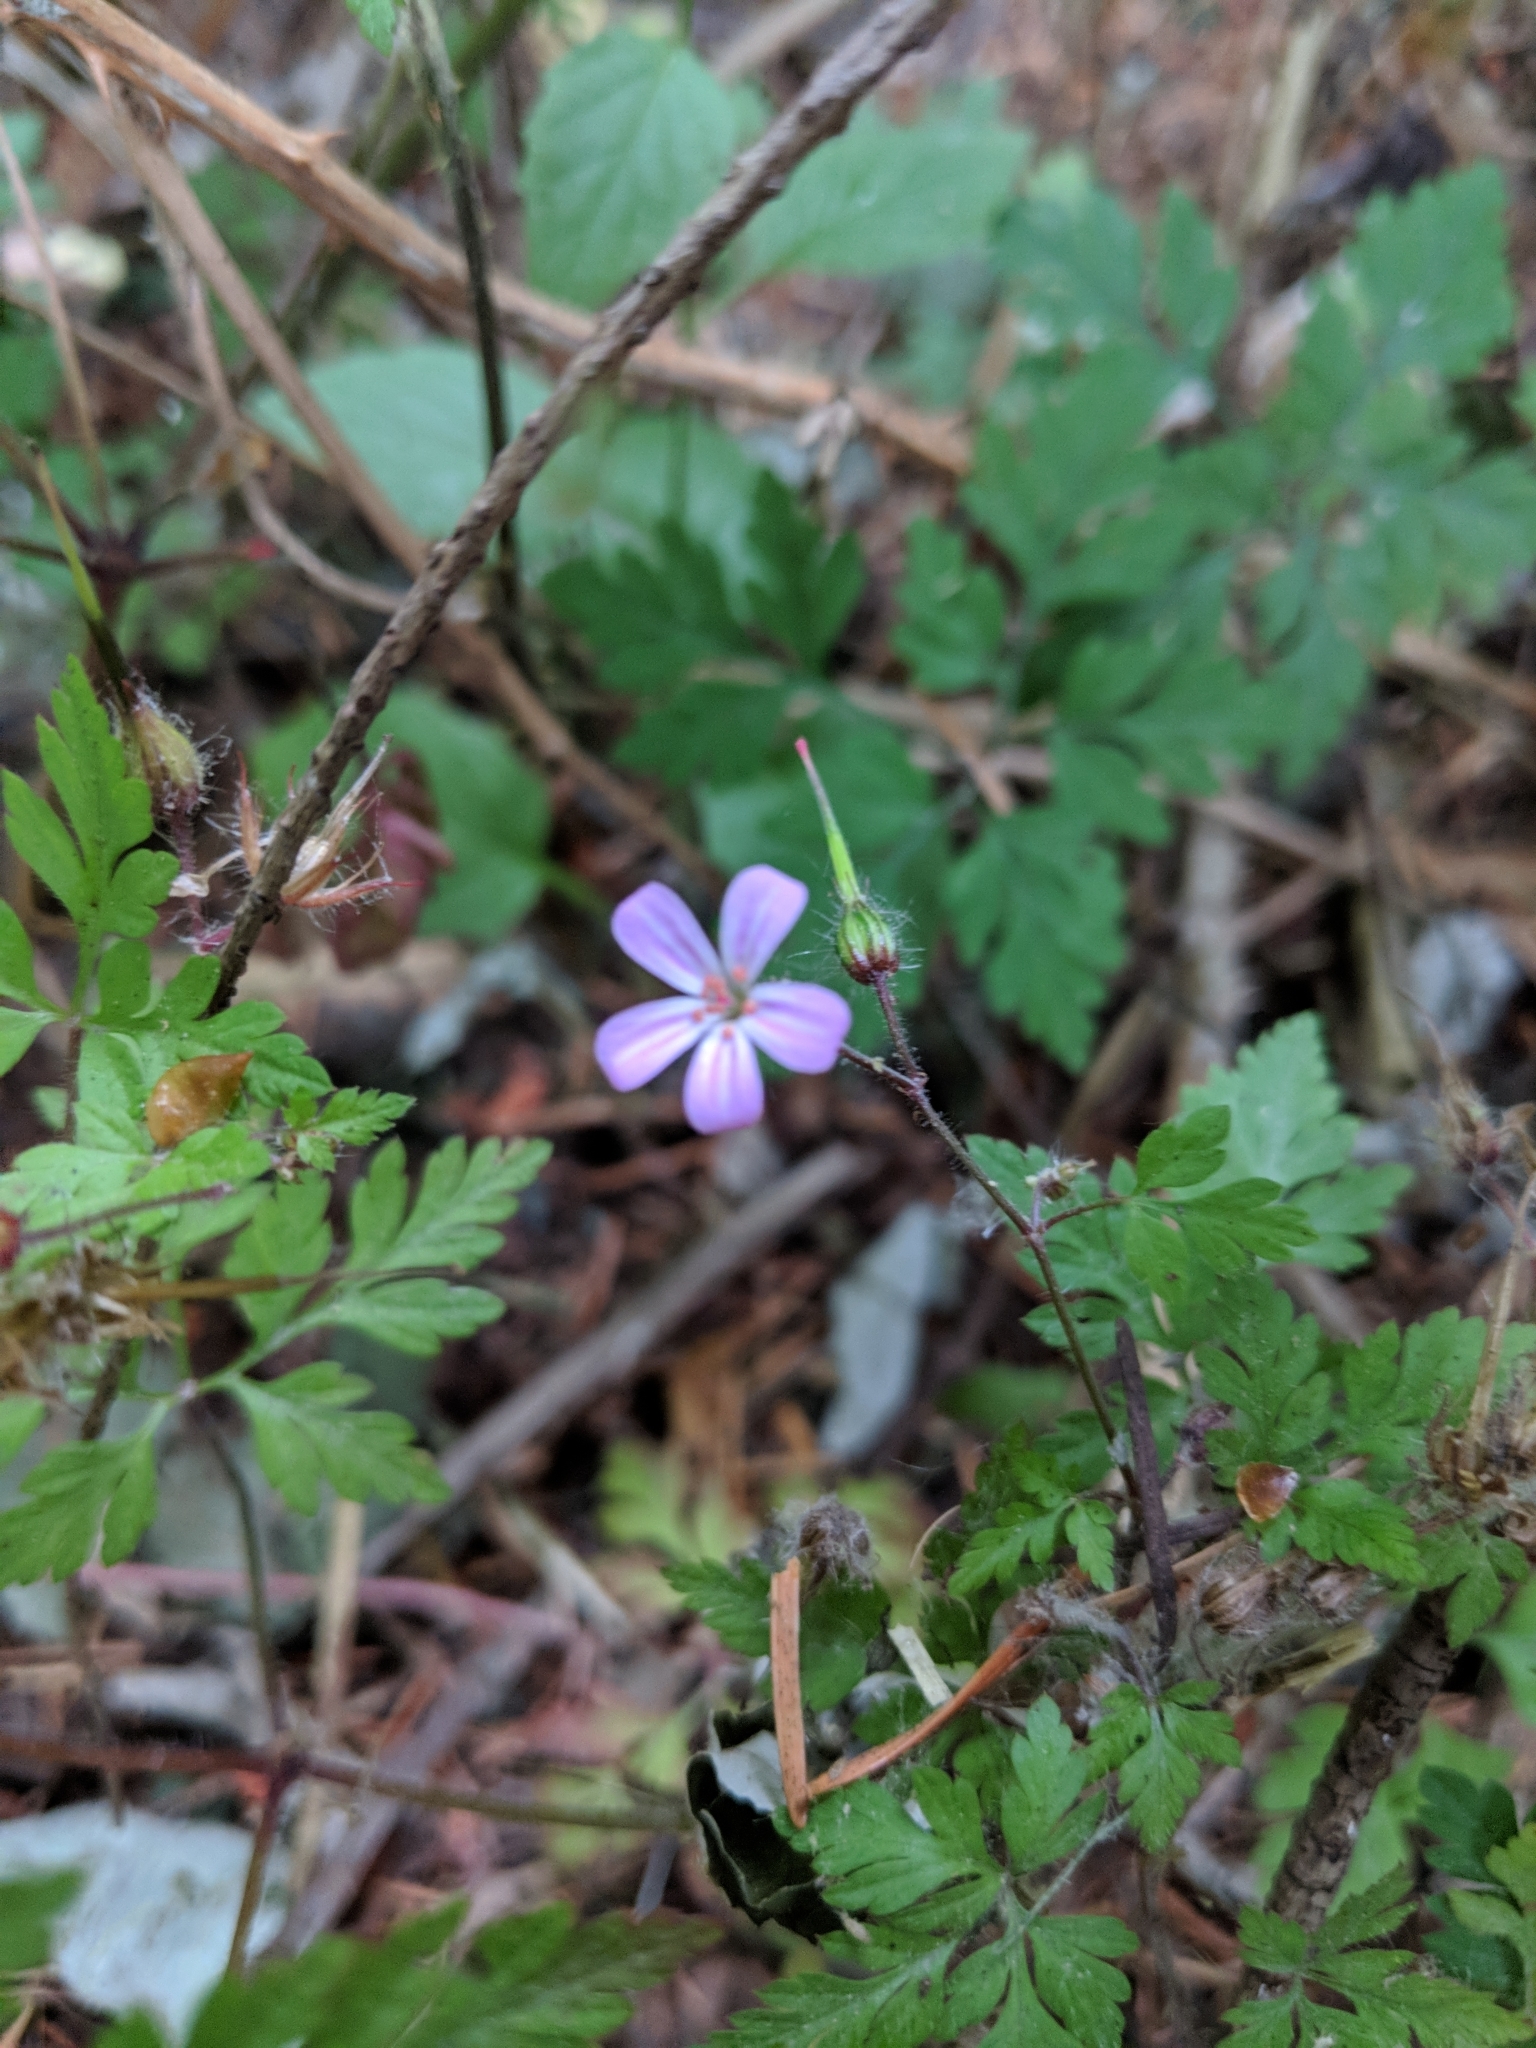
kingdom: Plantae
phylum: Tracheophyta
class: Magnoliopsida
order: Geraniales
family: Geraniaceae
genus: Geranium
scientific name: Geranium robertianum
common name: Herb-robert
